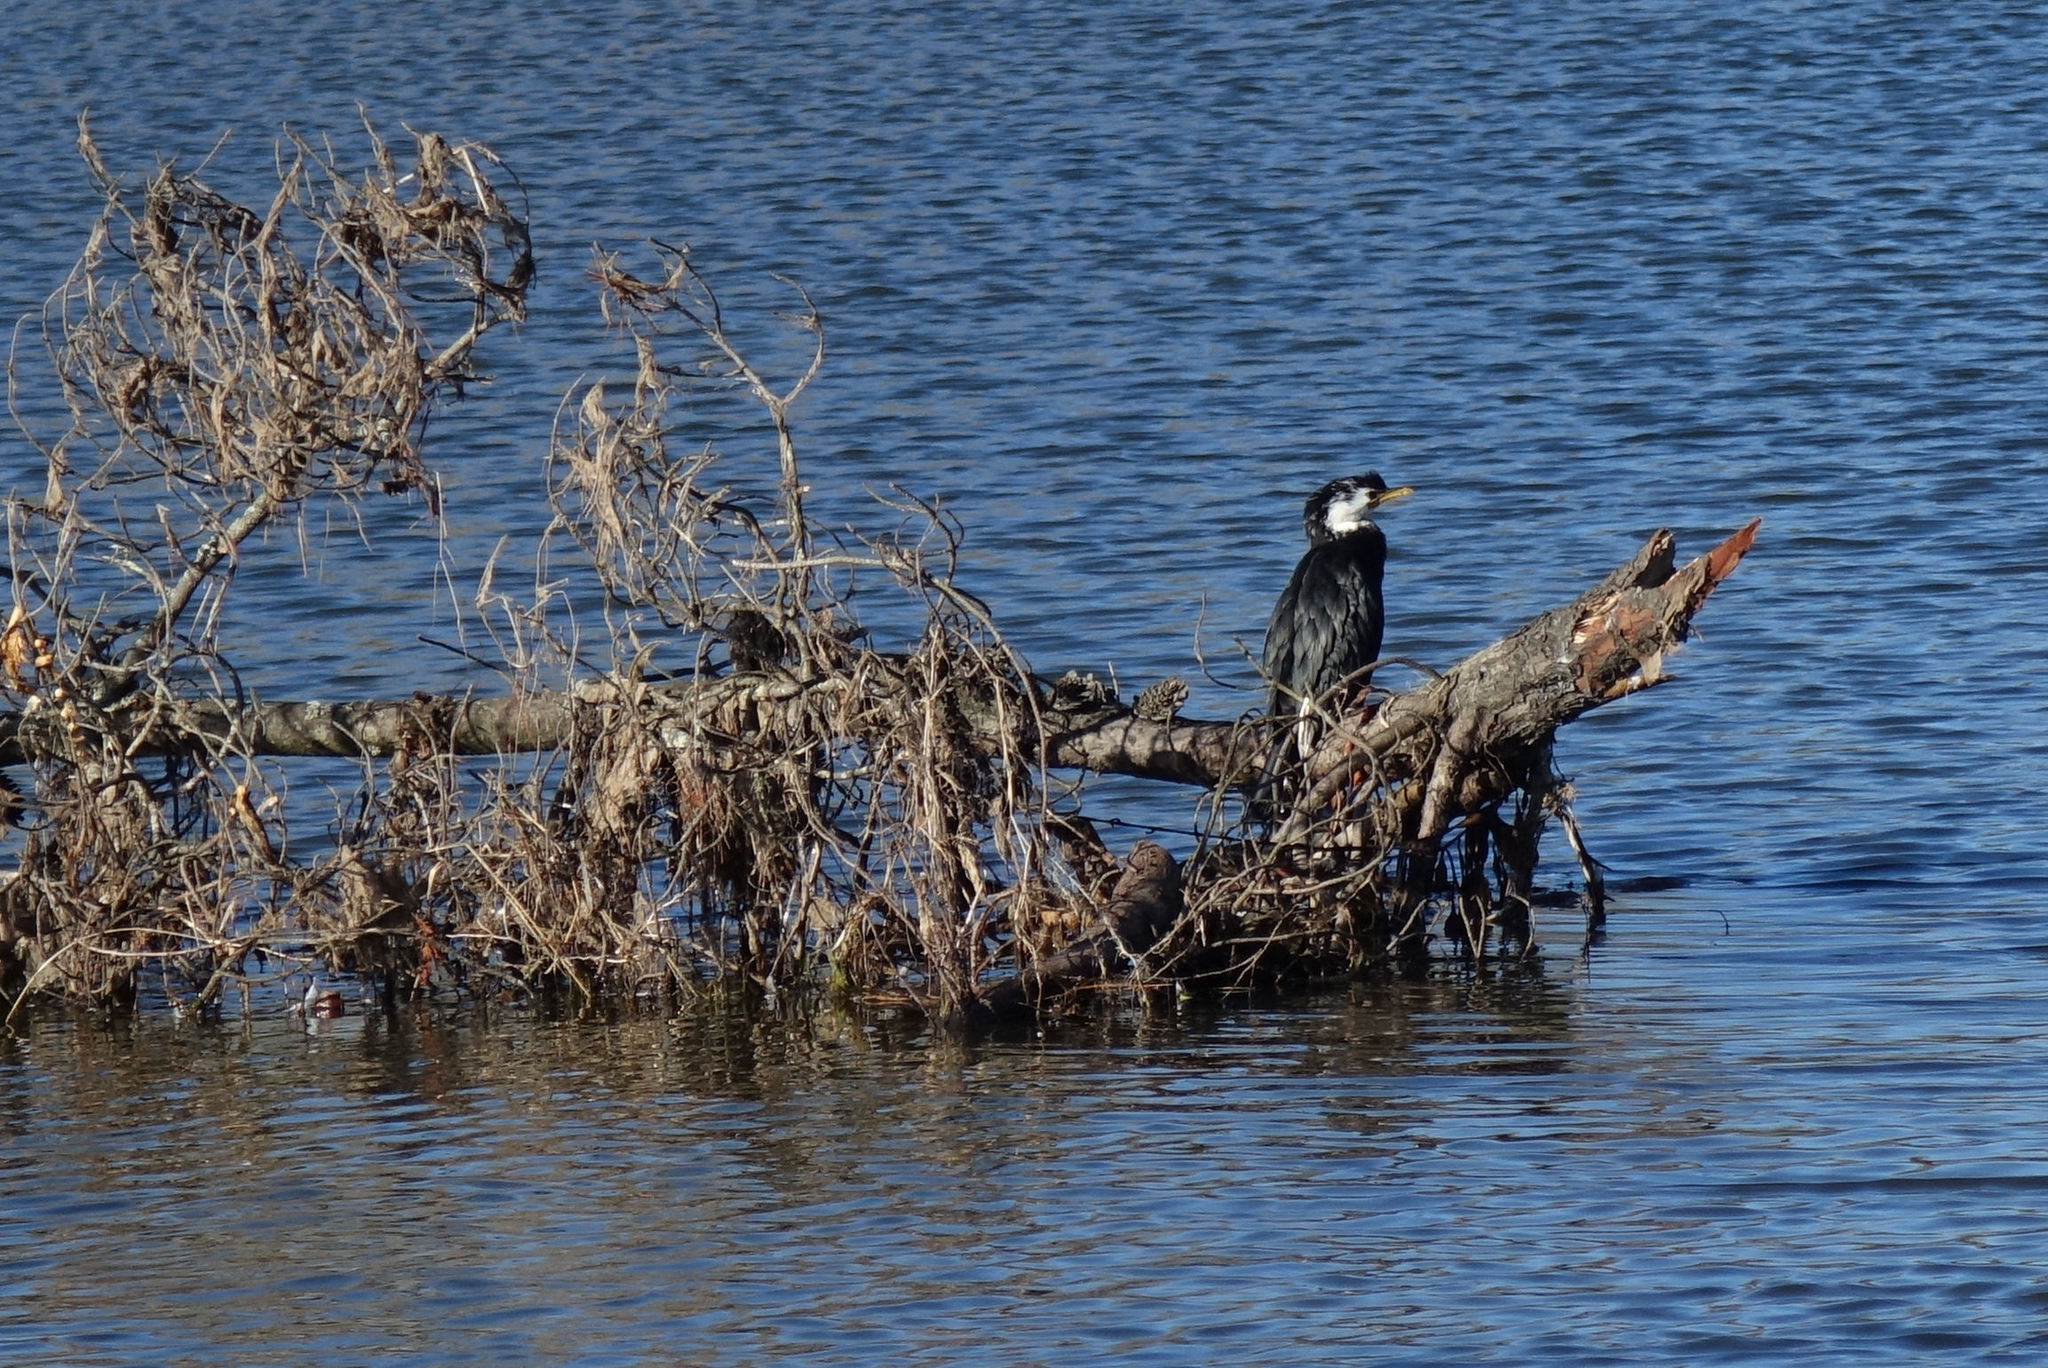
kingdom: Animalia
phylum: Chordata
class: Aves
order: Suliformes
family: Phalacrocoracidae
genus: Microcarbo
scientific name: Microcarbo melanoleucos
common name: Little pied cormorant
